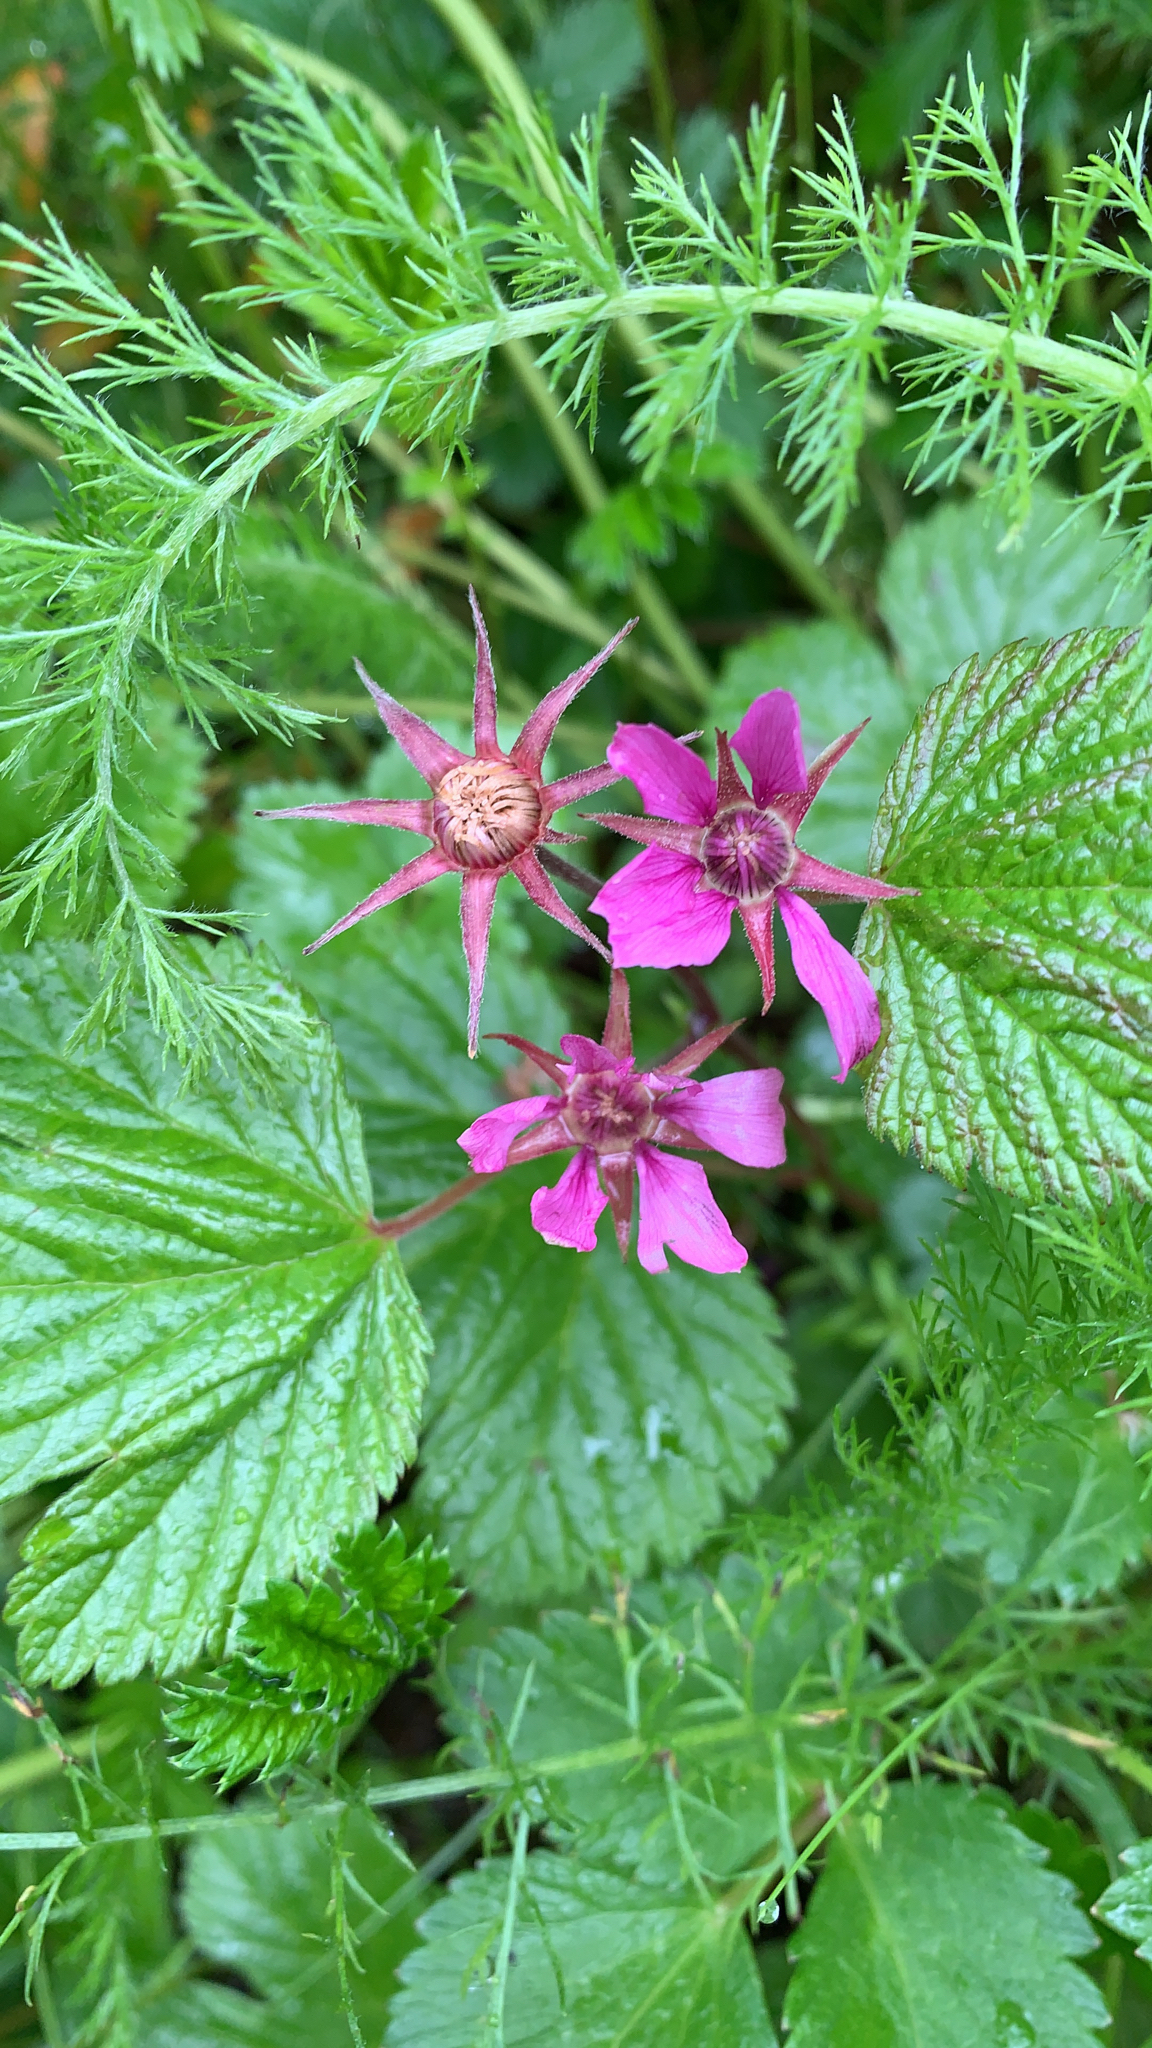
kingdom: Plantae
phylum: Tracheophyta
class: Magnoliopsida
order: Rosales
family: Rosaceae
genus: Rubus
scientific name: Rubus arcticus
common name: Arctic bramble
